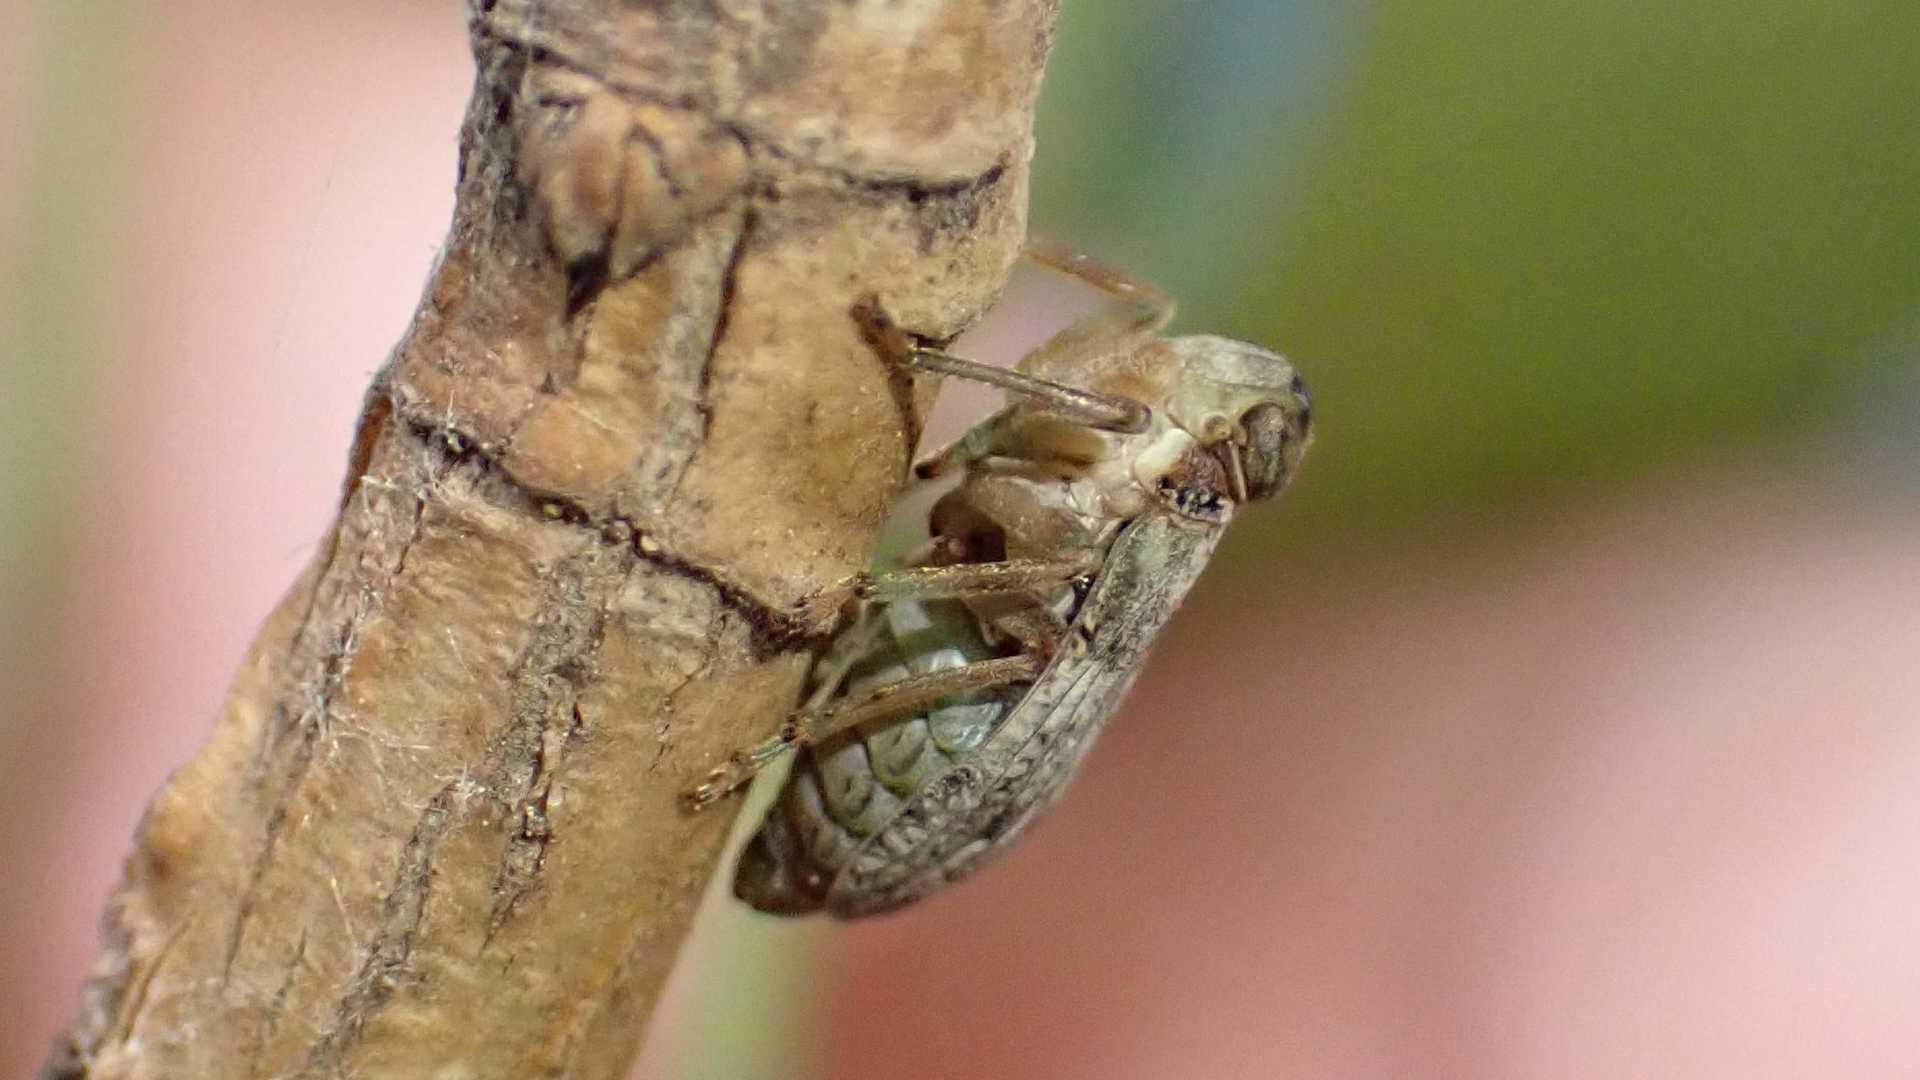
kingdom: Animalia
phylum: Arthropoda
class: Insecta
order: Hemiptera
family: Issidae
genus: Issus
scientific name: Issus coleoptratus
